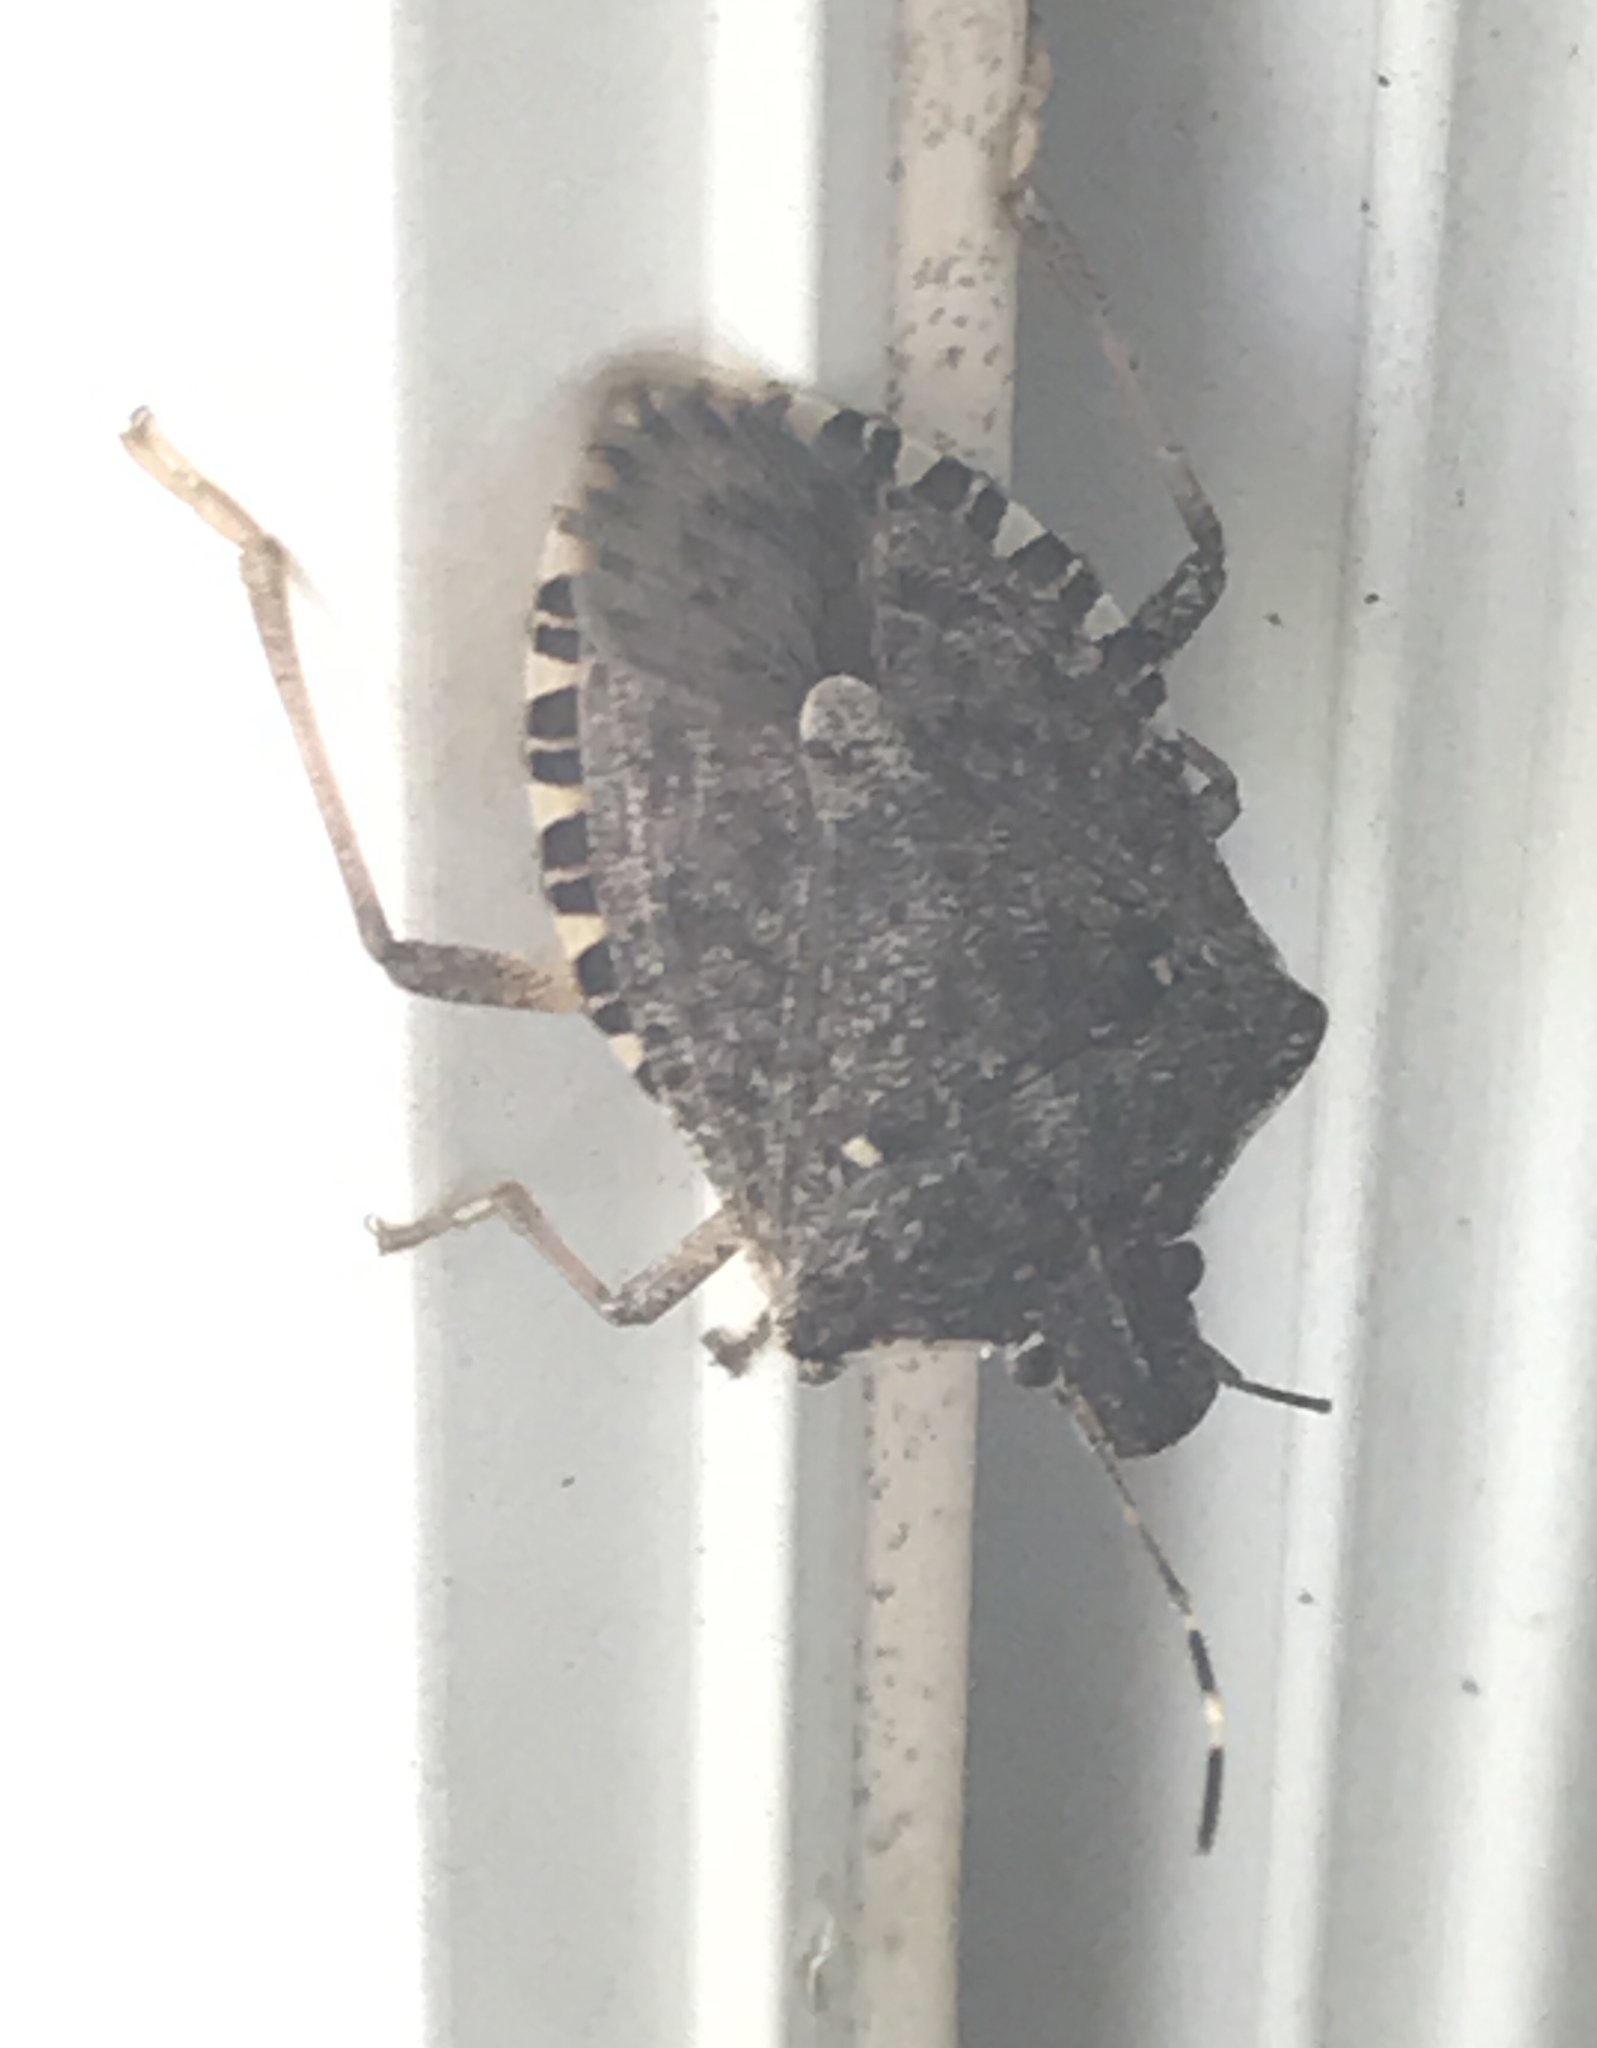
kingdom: Animalia
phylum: Arthropoda
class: Insecta
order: Hemiptera
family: Pentatomidae
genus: Halyomorpha
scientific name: Halyomorpha halys
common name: Brown marmorated stink bug
